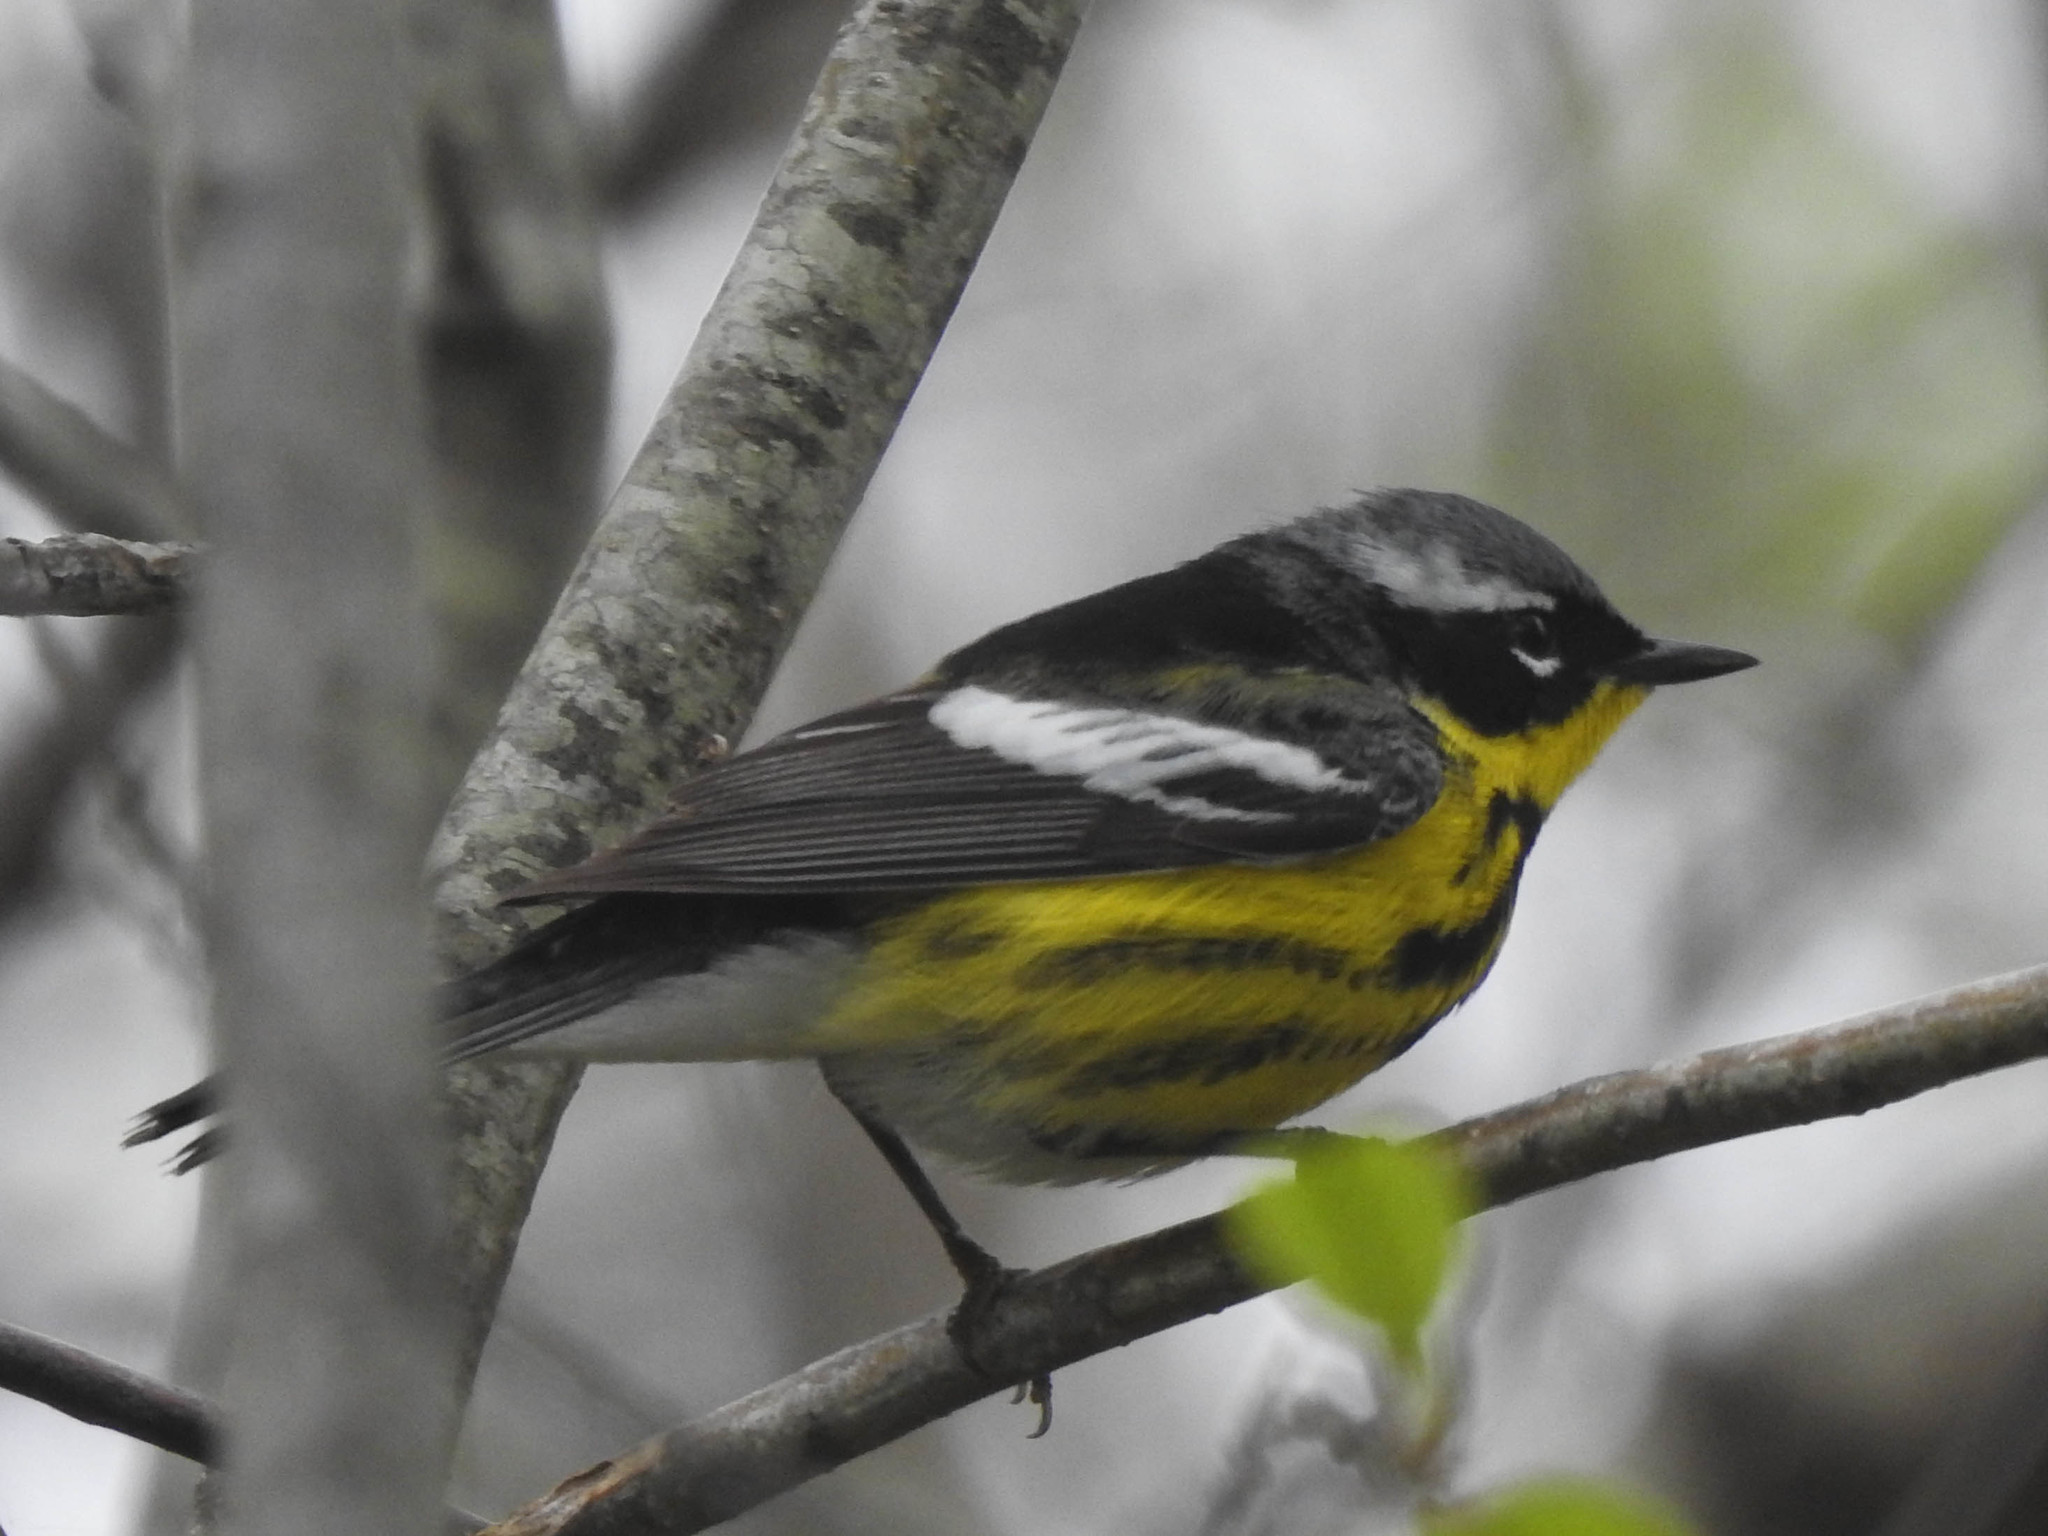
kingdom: Animalia
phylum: Chordata
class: Aves
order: Passeriformes
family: Parulidae
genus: Setophaga
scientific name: Setophaga magnolia
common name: Magnolia warbler
